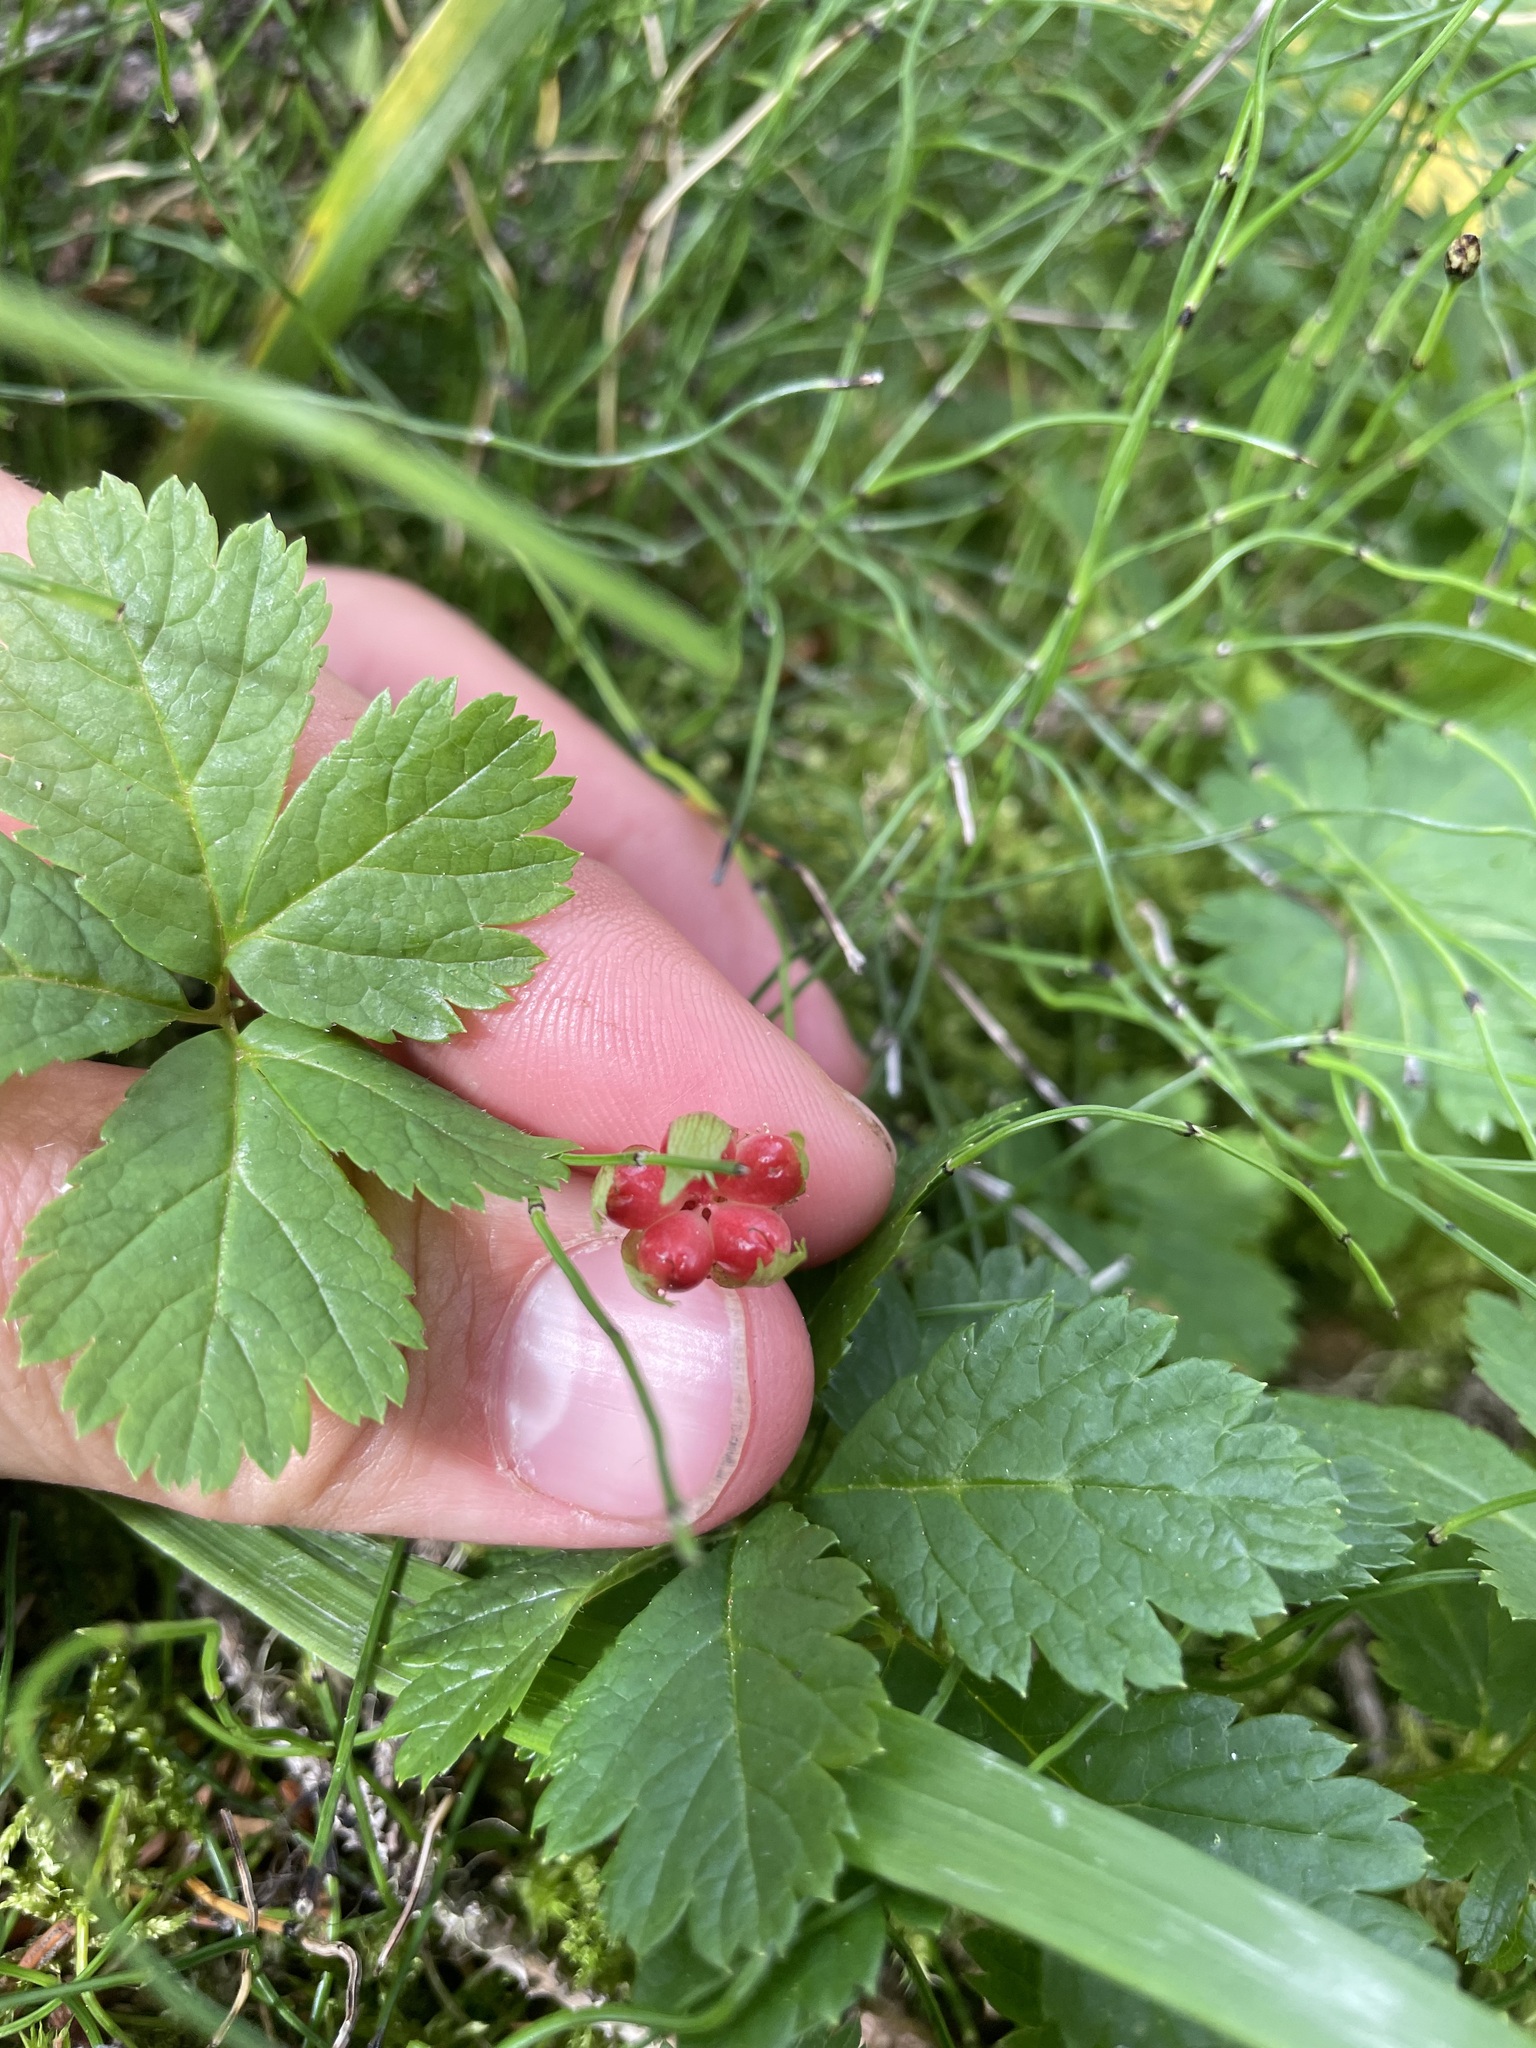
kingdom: Plantae
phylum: Tracheophyta
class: Magnoliopsida
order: Rosales
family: Rosaceae
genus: Rubus
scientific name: Rubus pedatus
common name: Creeping raspberry
